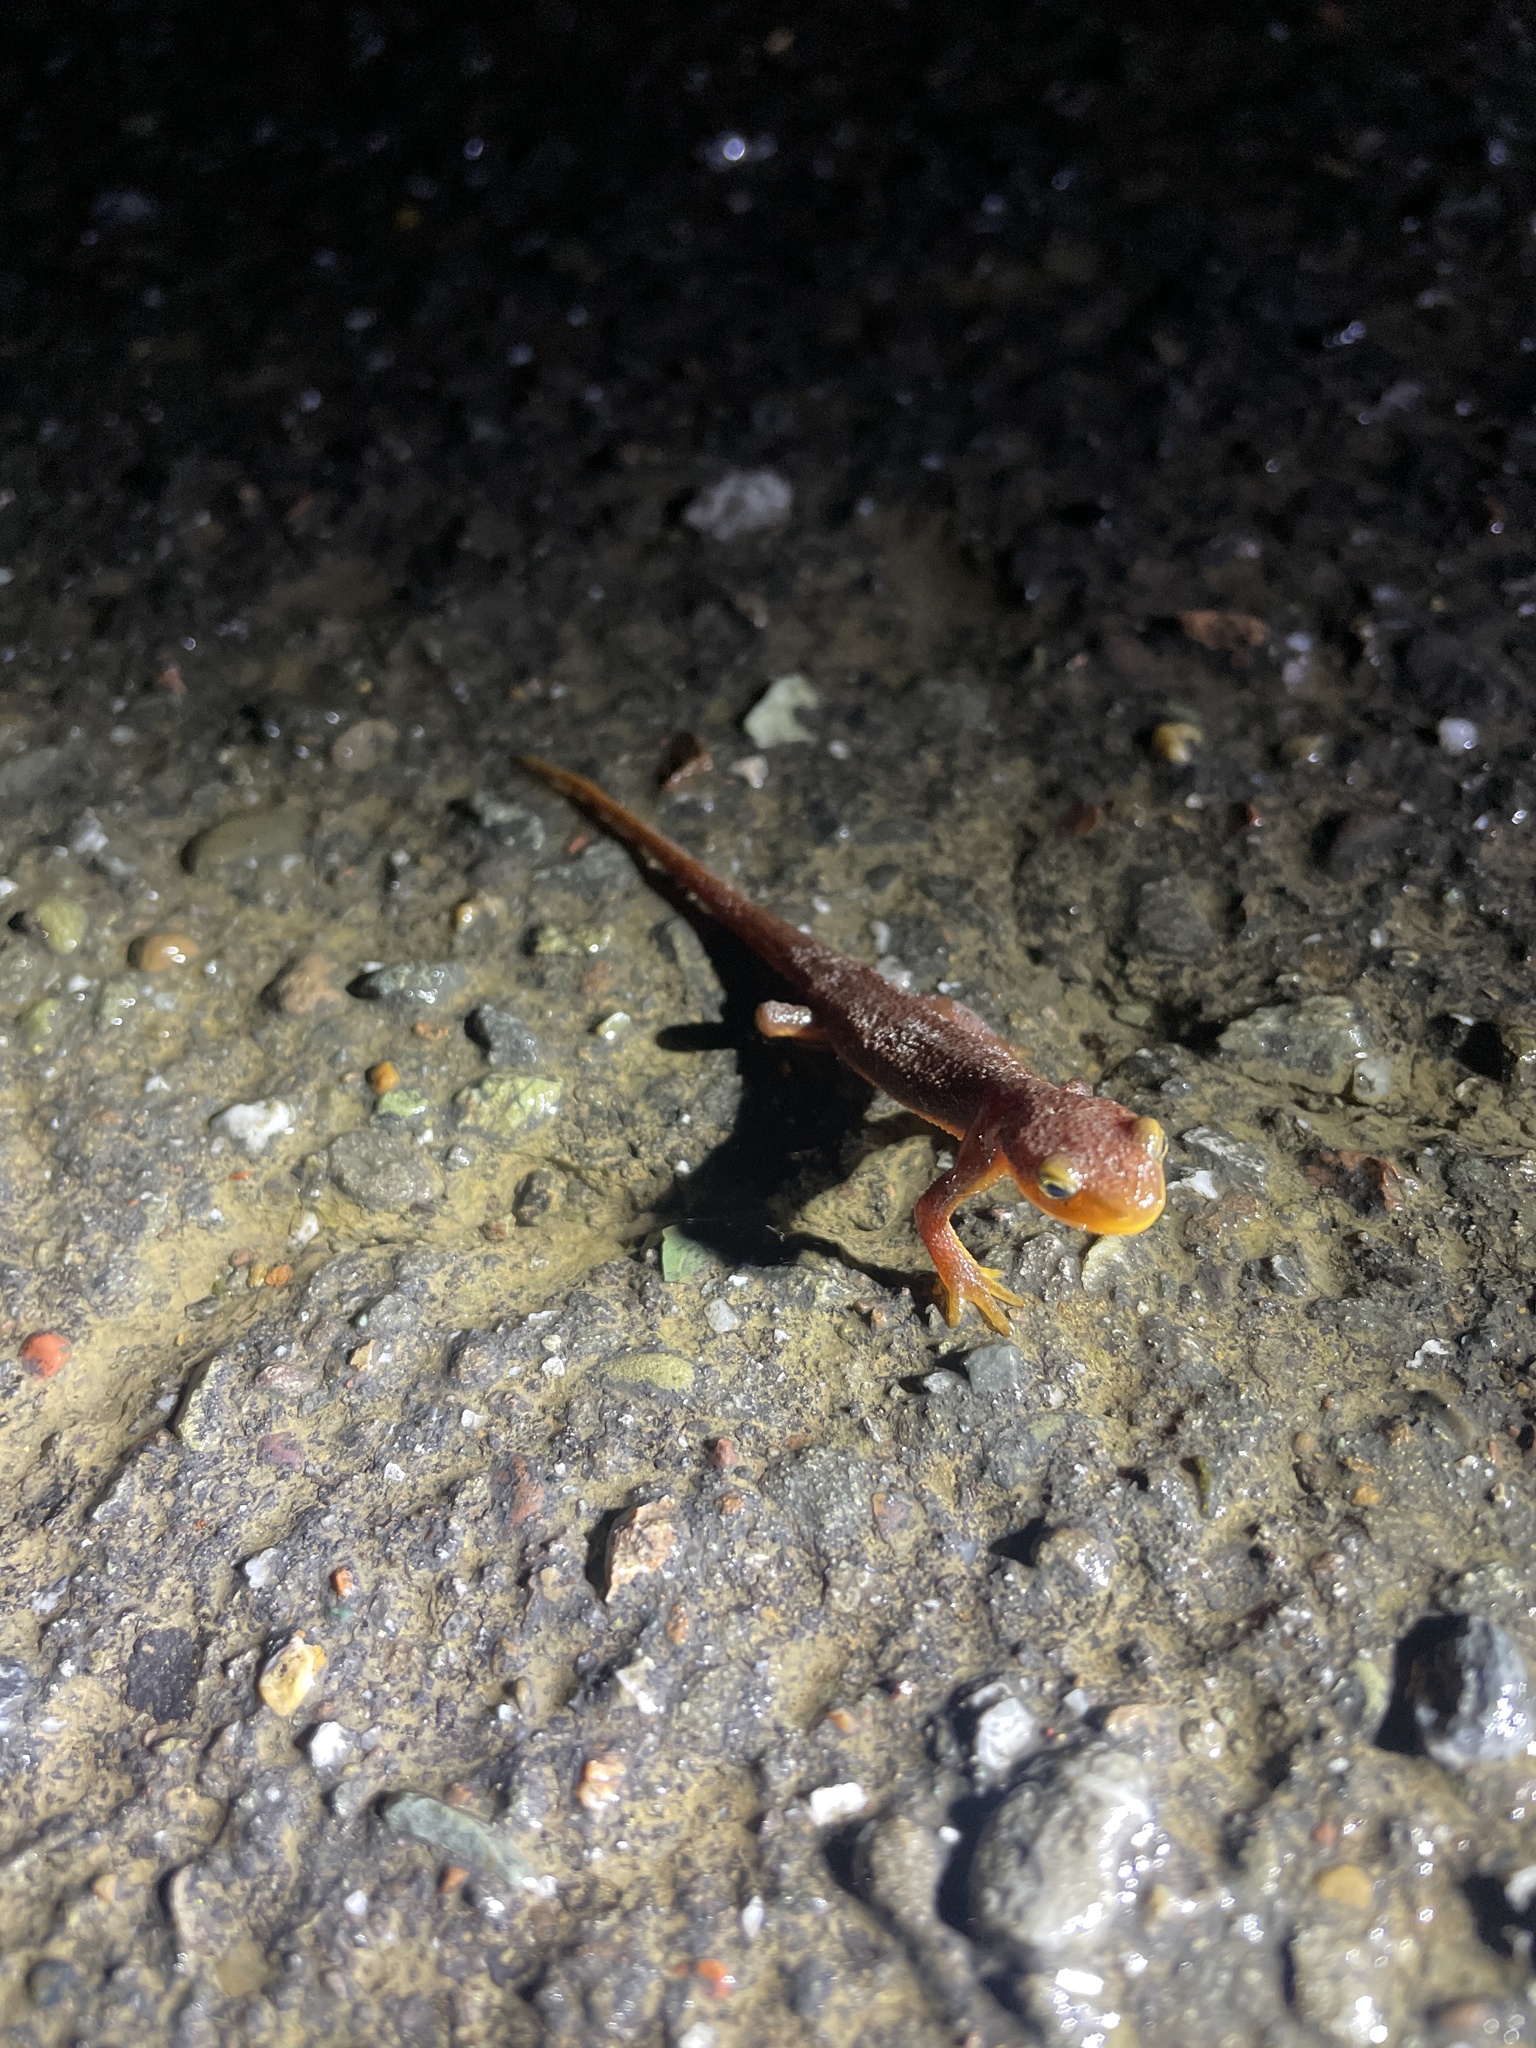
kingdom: Animalia
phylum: Chordata
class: Amphibia
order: Caudata
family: Salamandridae
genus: Taricha
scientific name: Taricha torosa
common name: California newt
